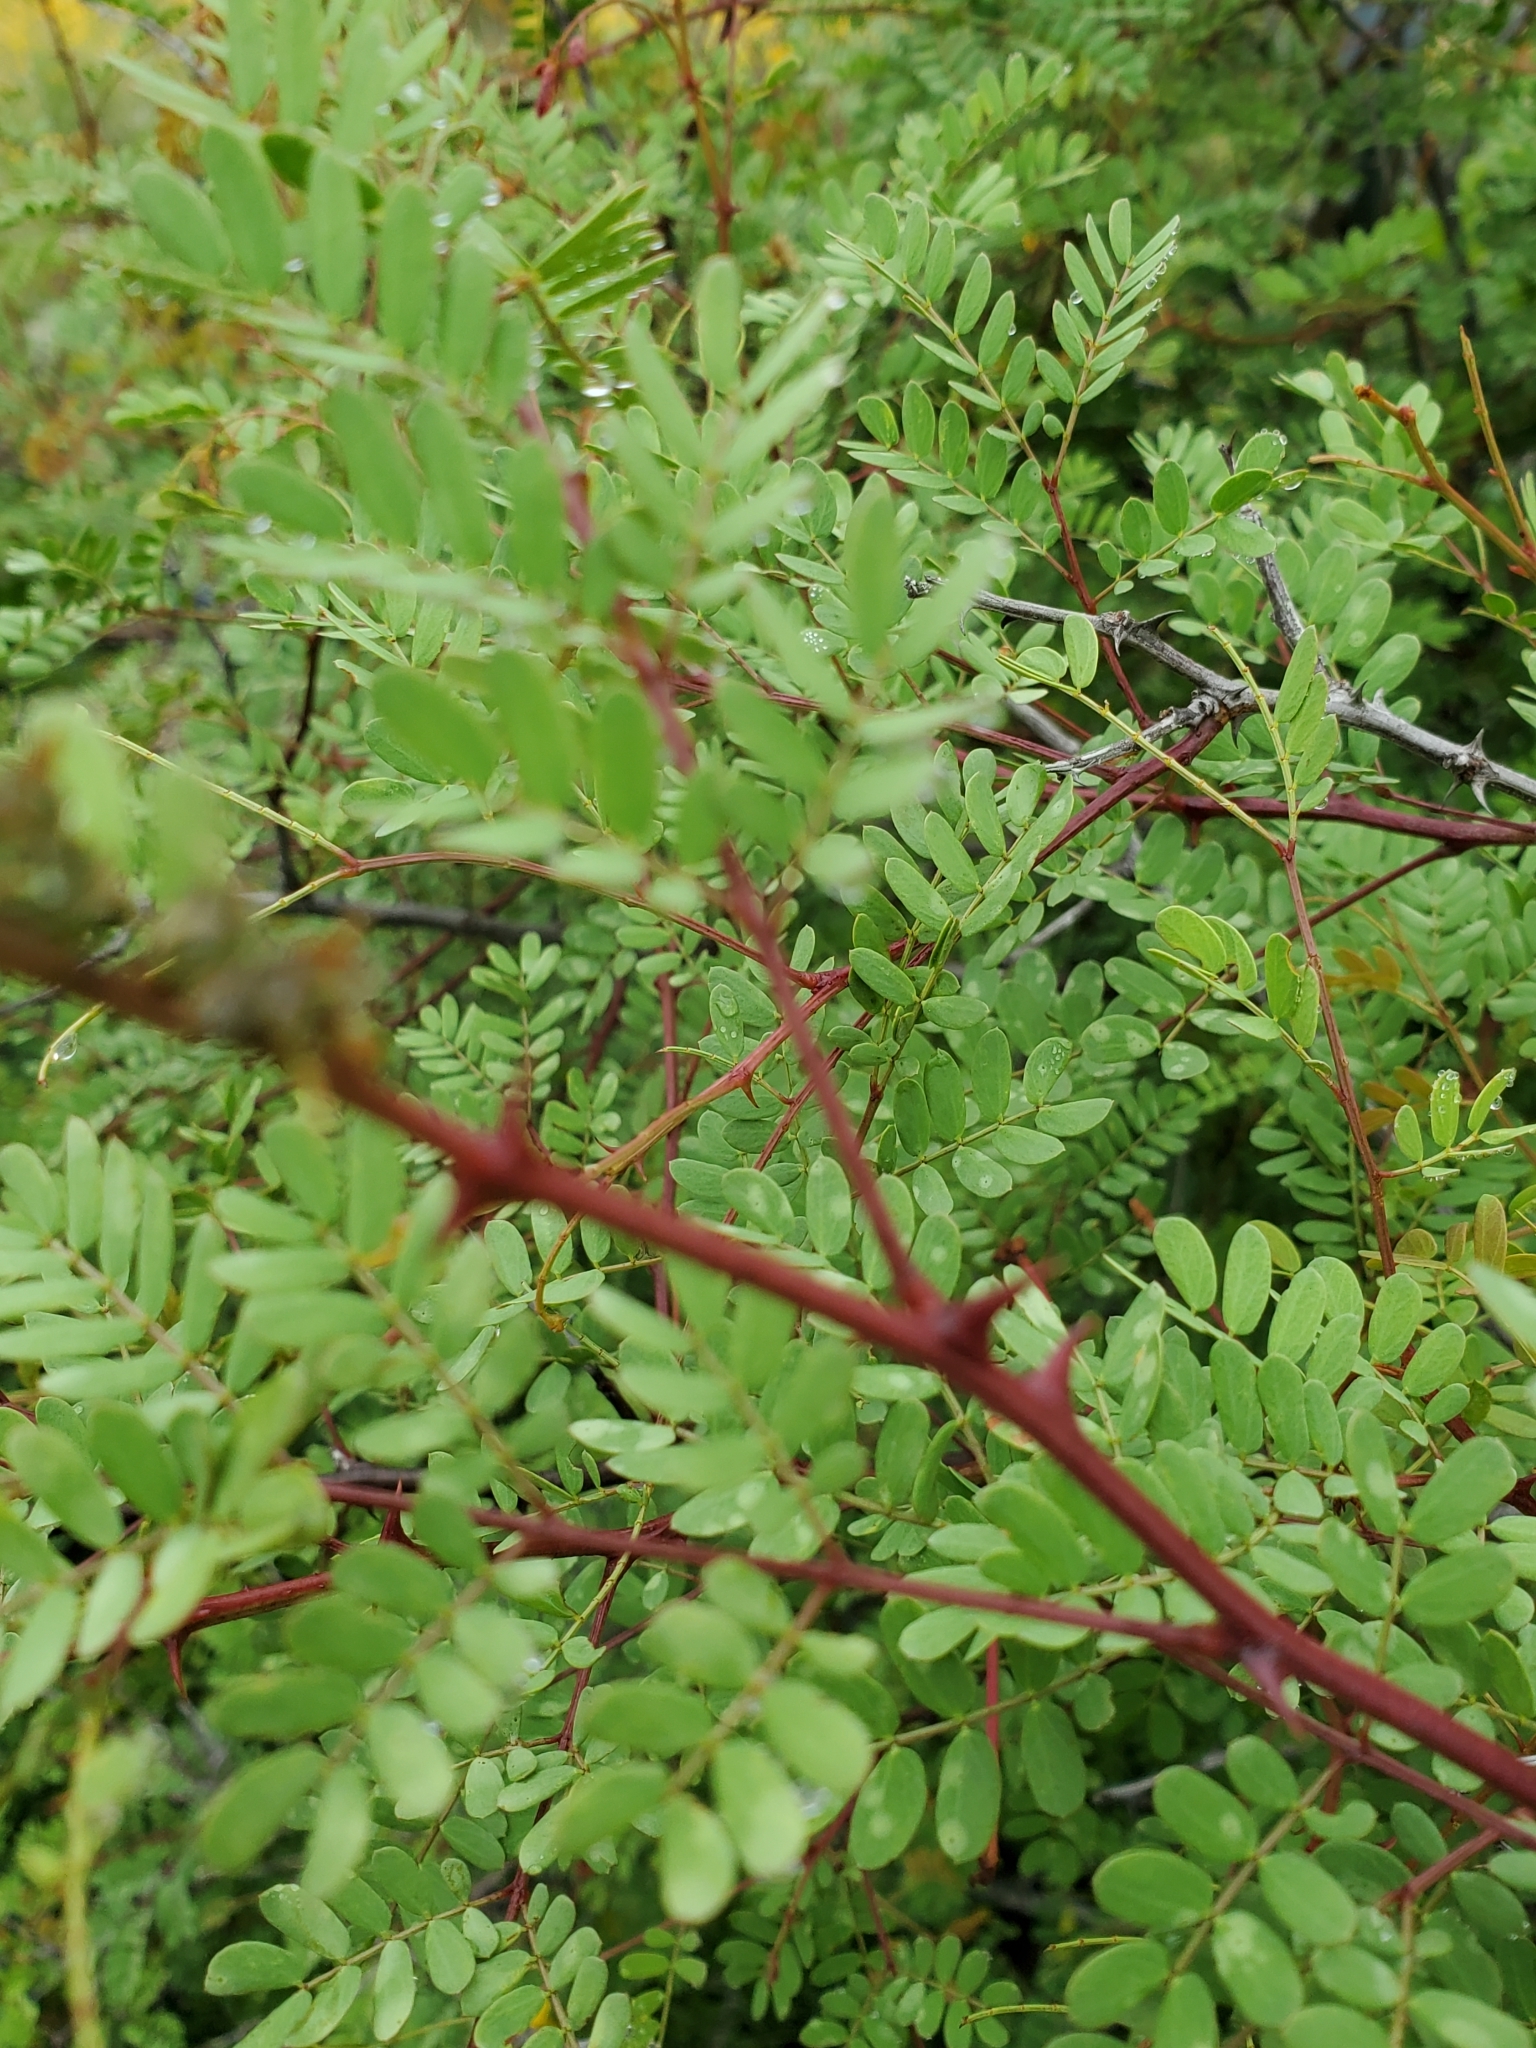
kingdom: Plantae
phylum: Tracheophyta
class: Magnoliopsida
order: Fabales
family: Fabaceae
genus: Senegalia
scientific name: Senegalia roemeriana
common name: Roemer's acacia
